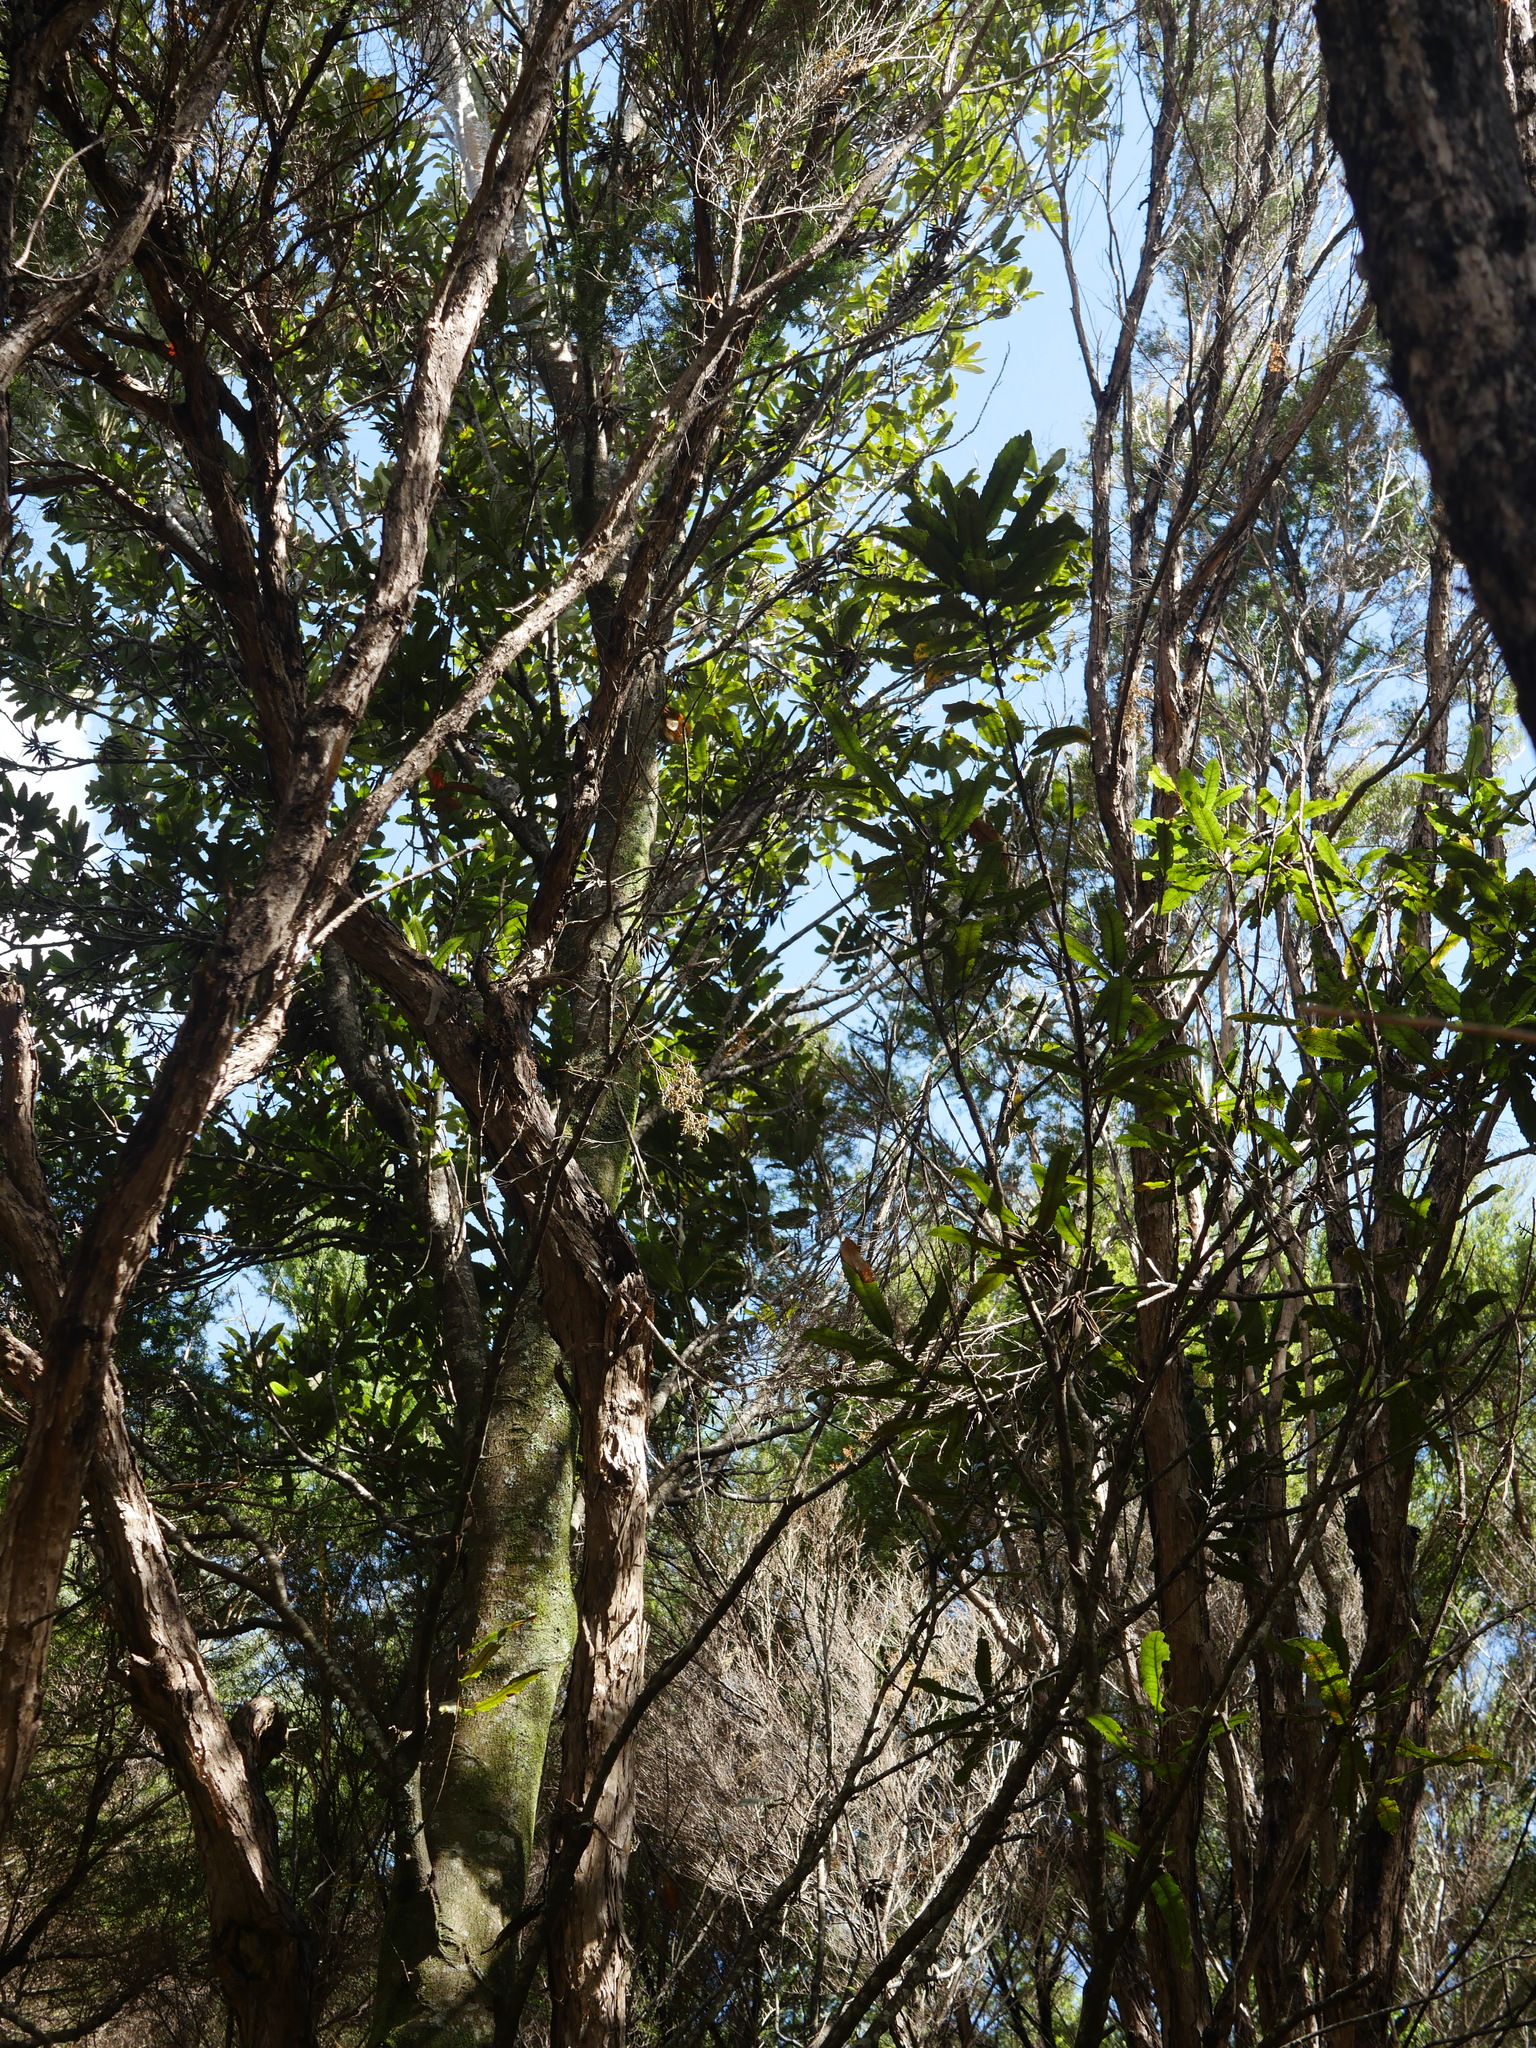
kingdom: Plantae
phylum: Tracheophyta
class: Magnoliopsida
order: Proteales
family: Proteaceae
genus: Knightia
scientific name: Knightia excelsa
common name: New zealand-honeysuckle
